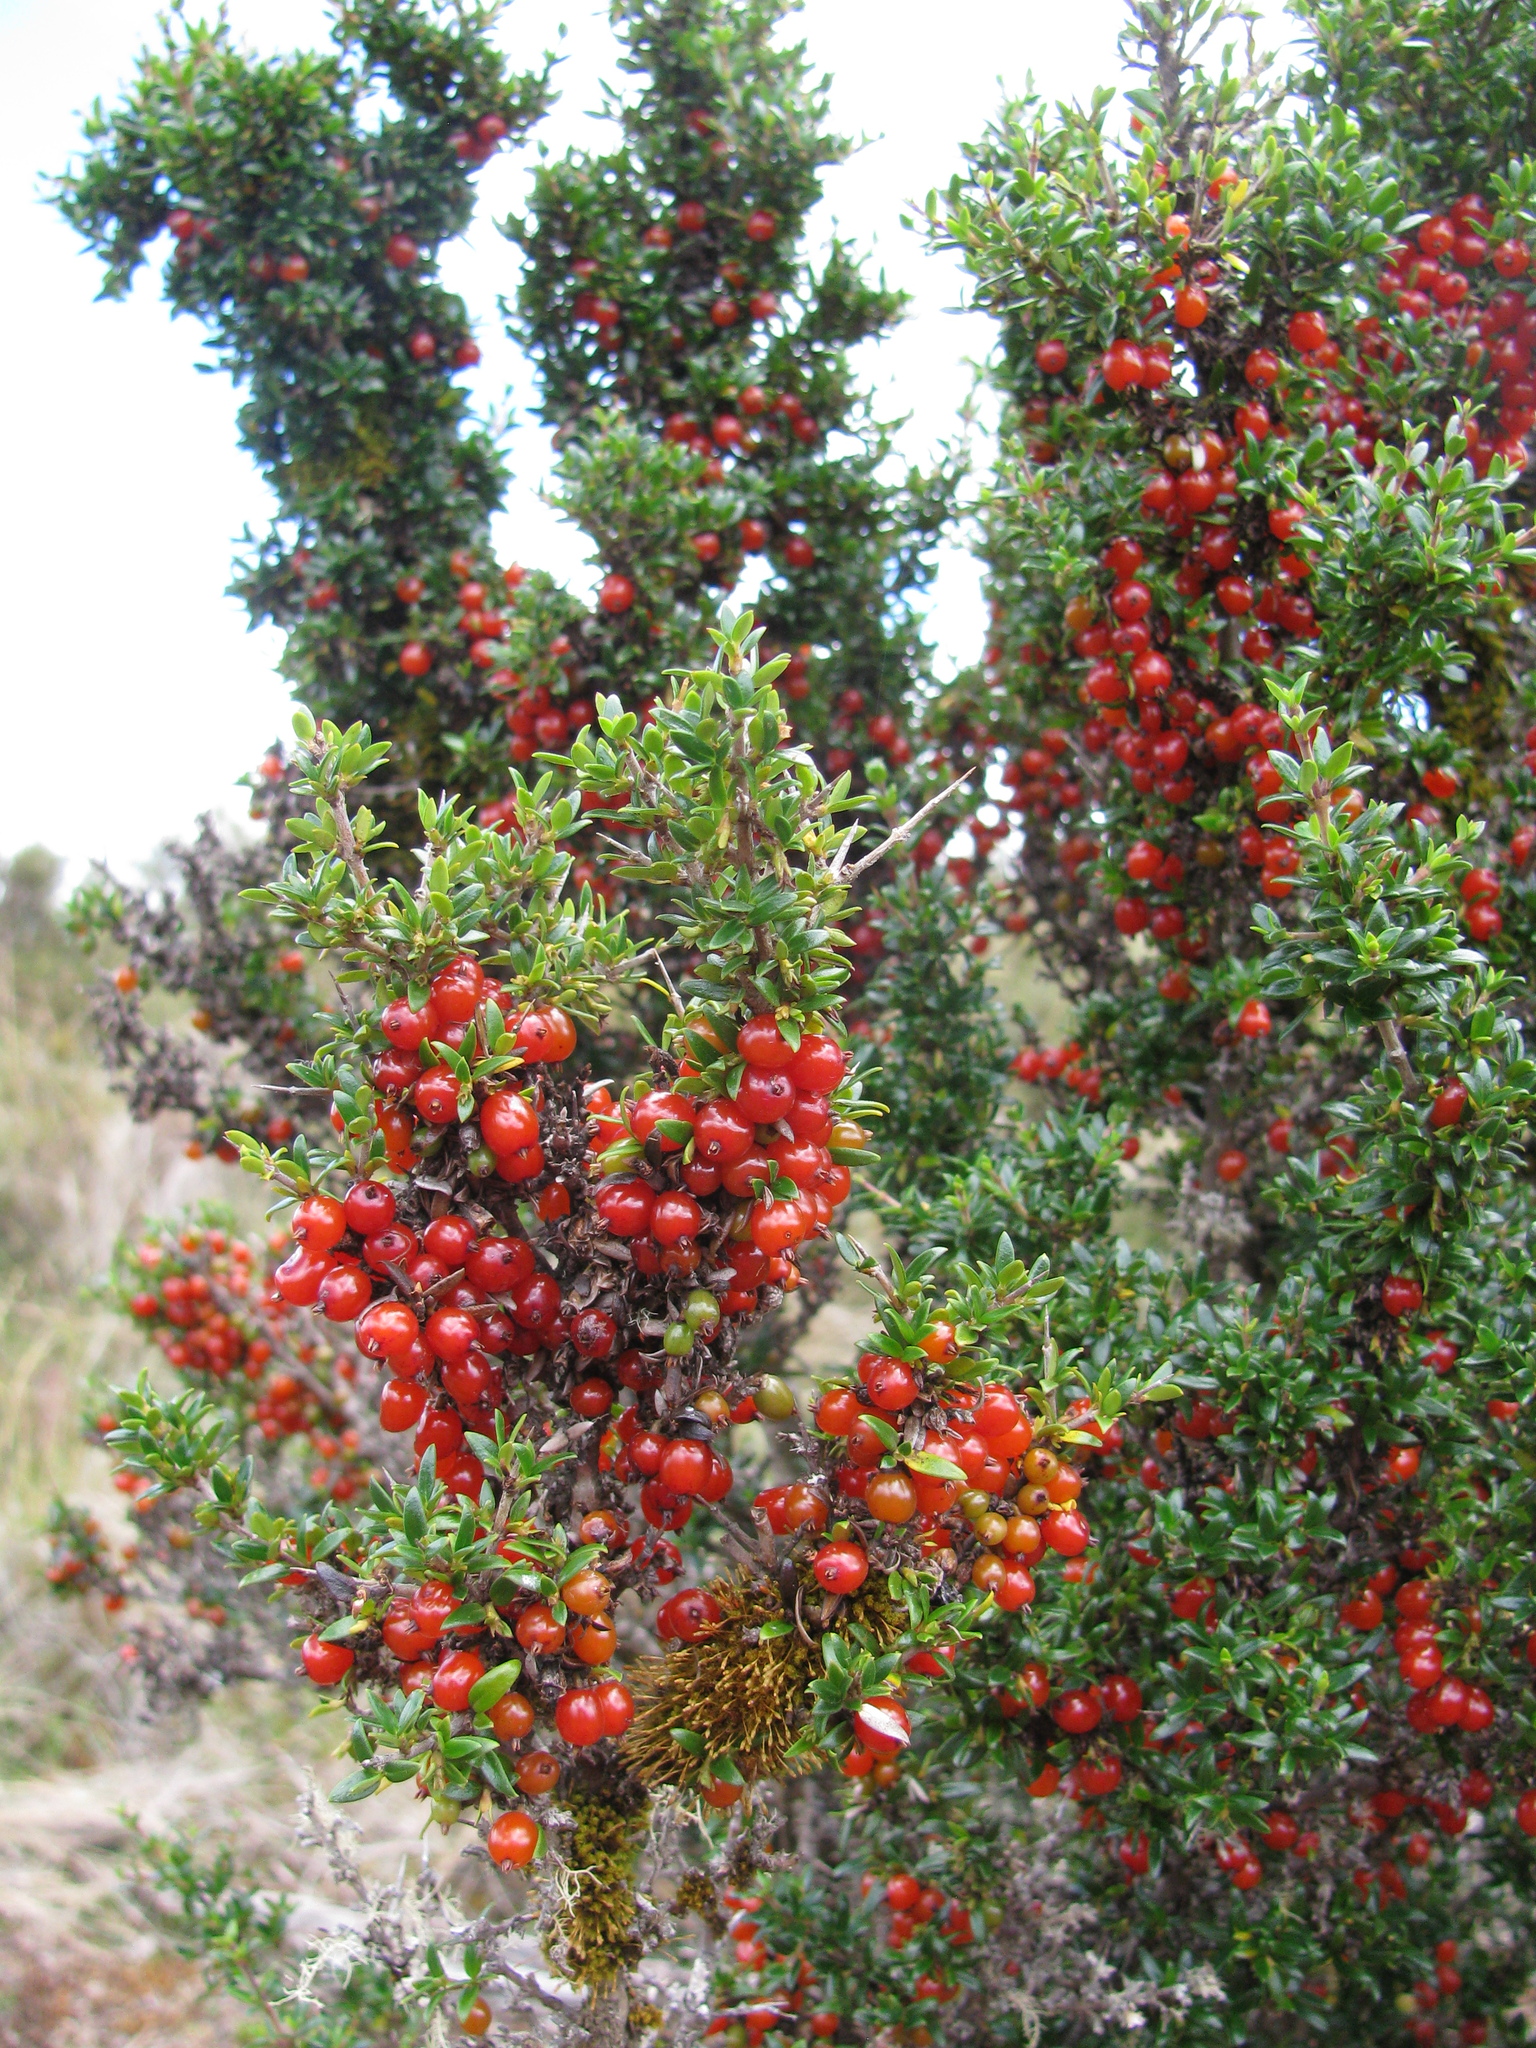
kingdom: Plantae
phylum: Tracheophyta
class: Magnoliopsida
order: Gentianales
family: Rubiaceae
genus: Coprosma
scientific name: Coprosma nitida
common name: Shining coprosma
